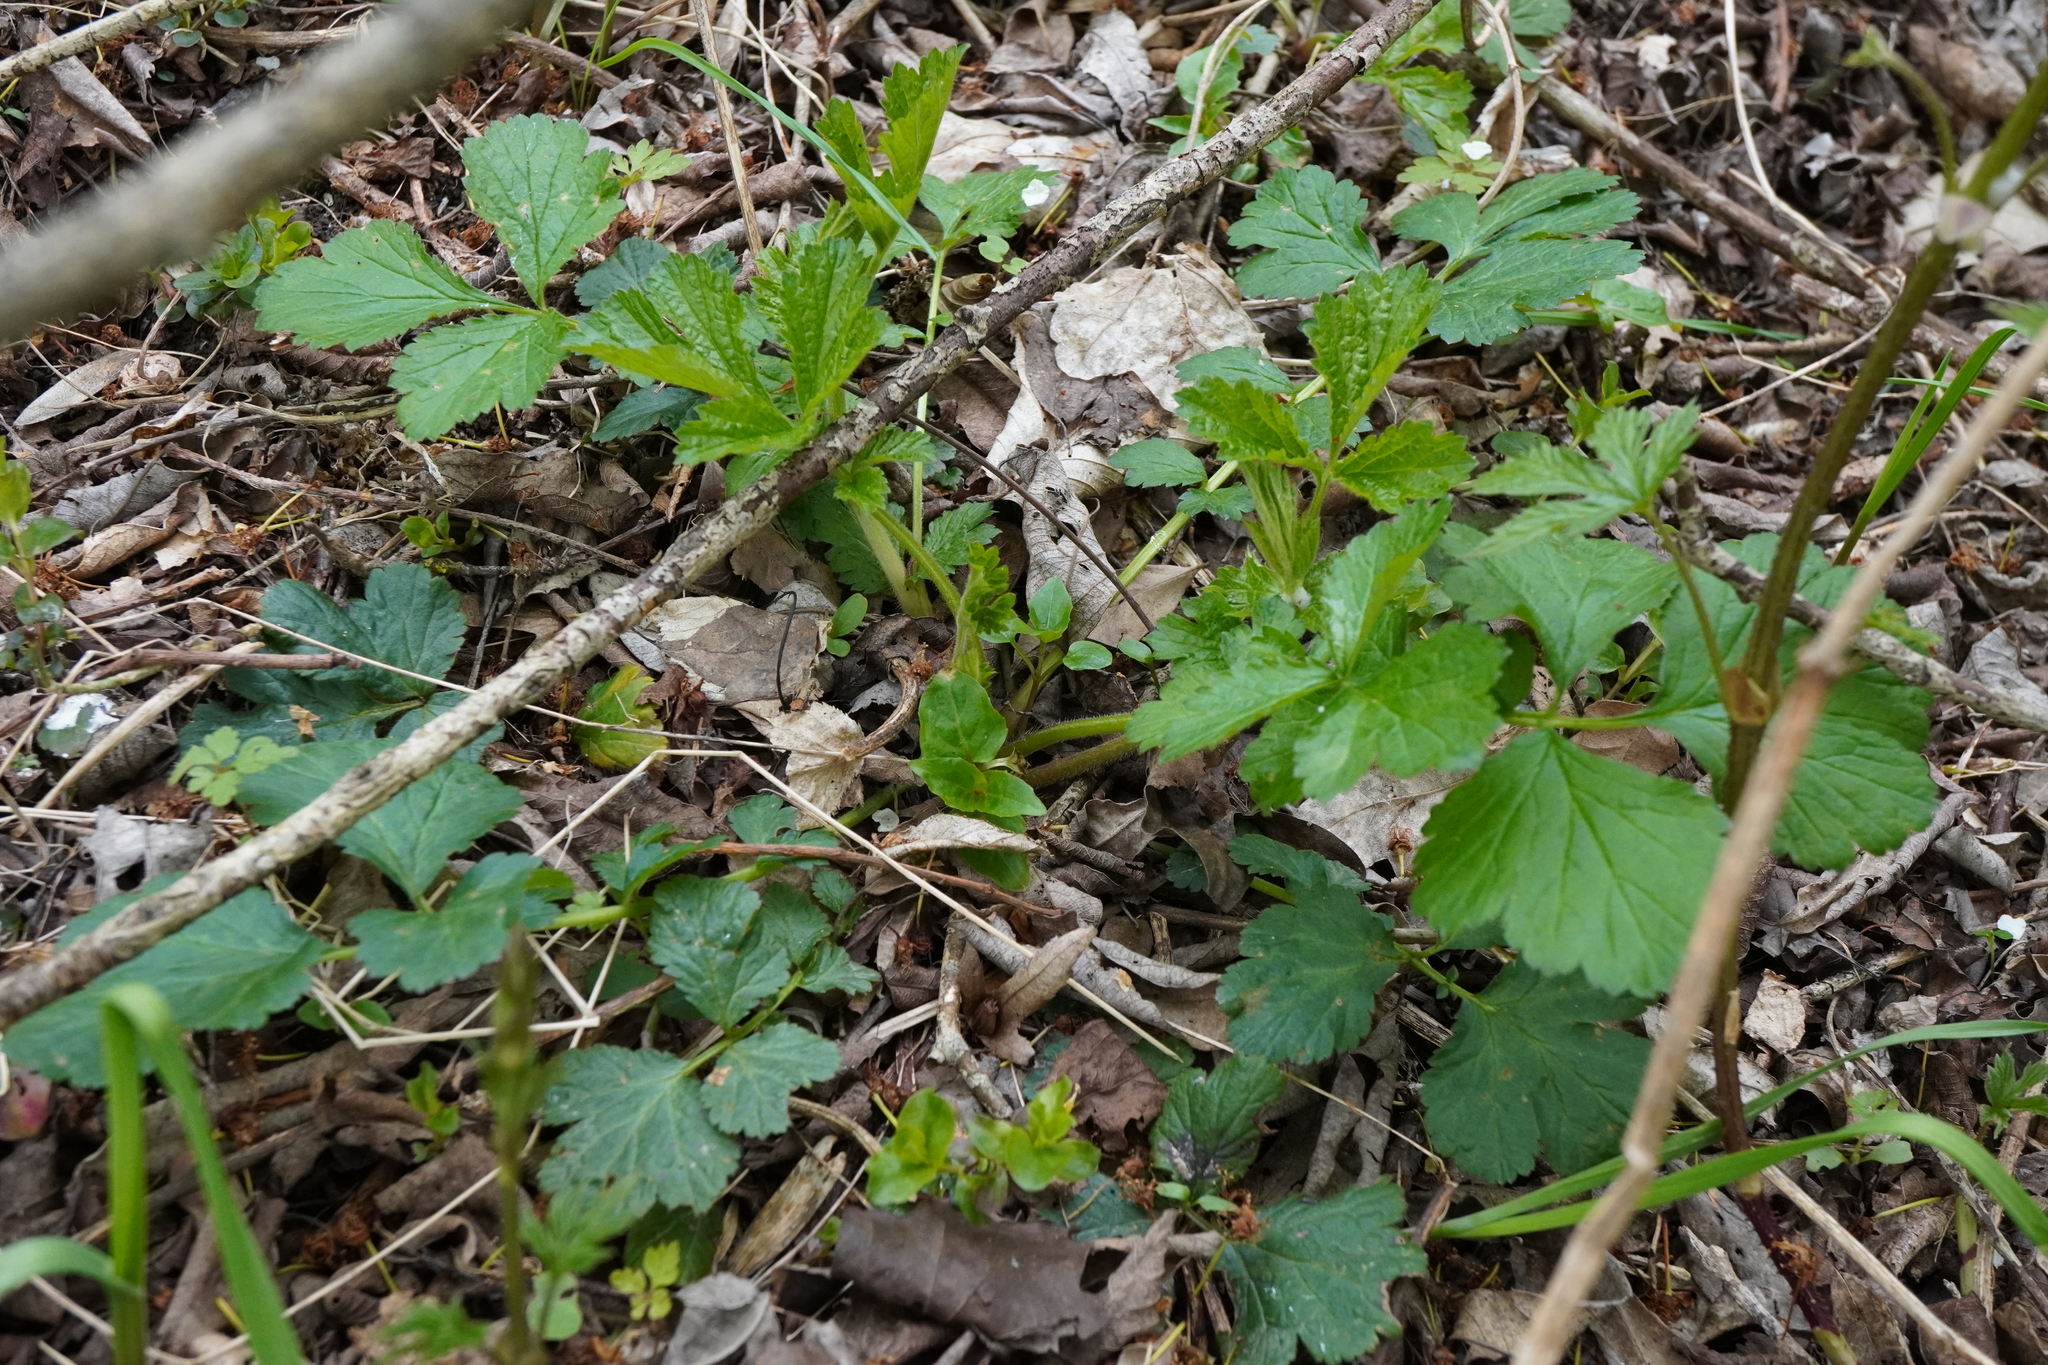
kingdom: Plantae
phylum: Tracheophyta
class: Magnoliopsida
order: Rosales
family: Rosaceae
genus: Geum
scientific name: Geum urbanum
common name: Wood avens
